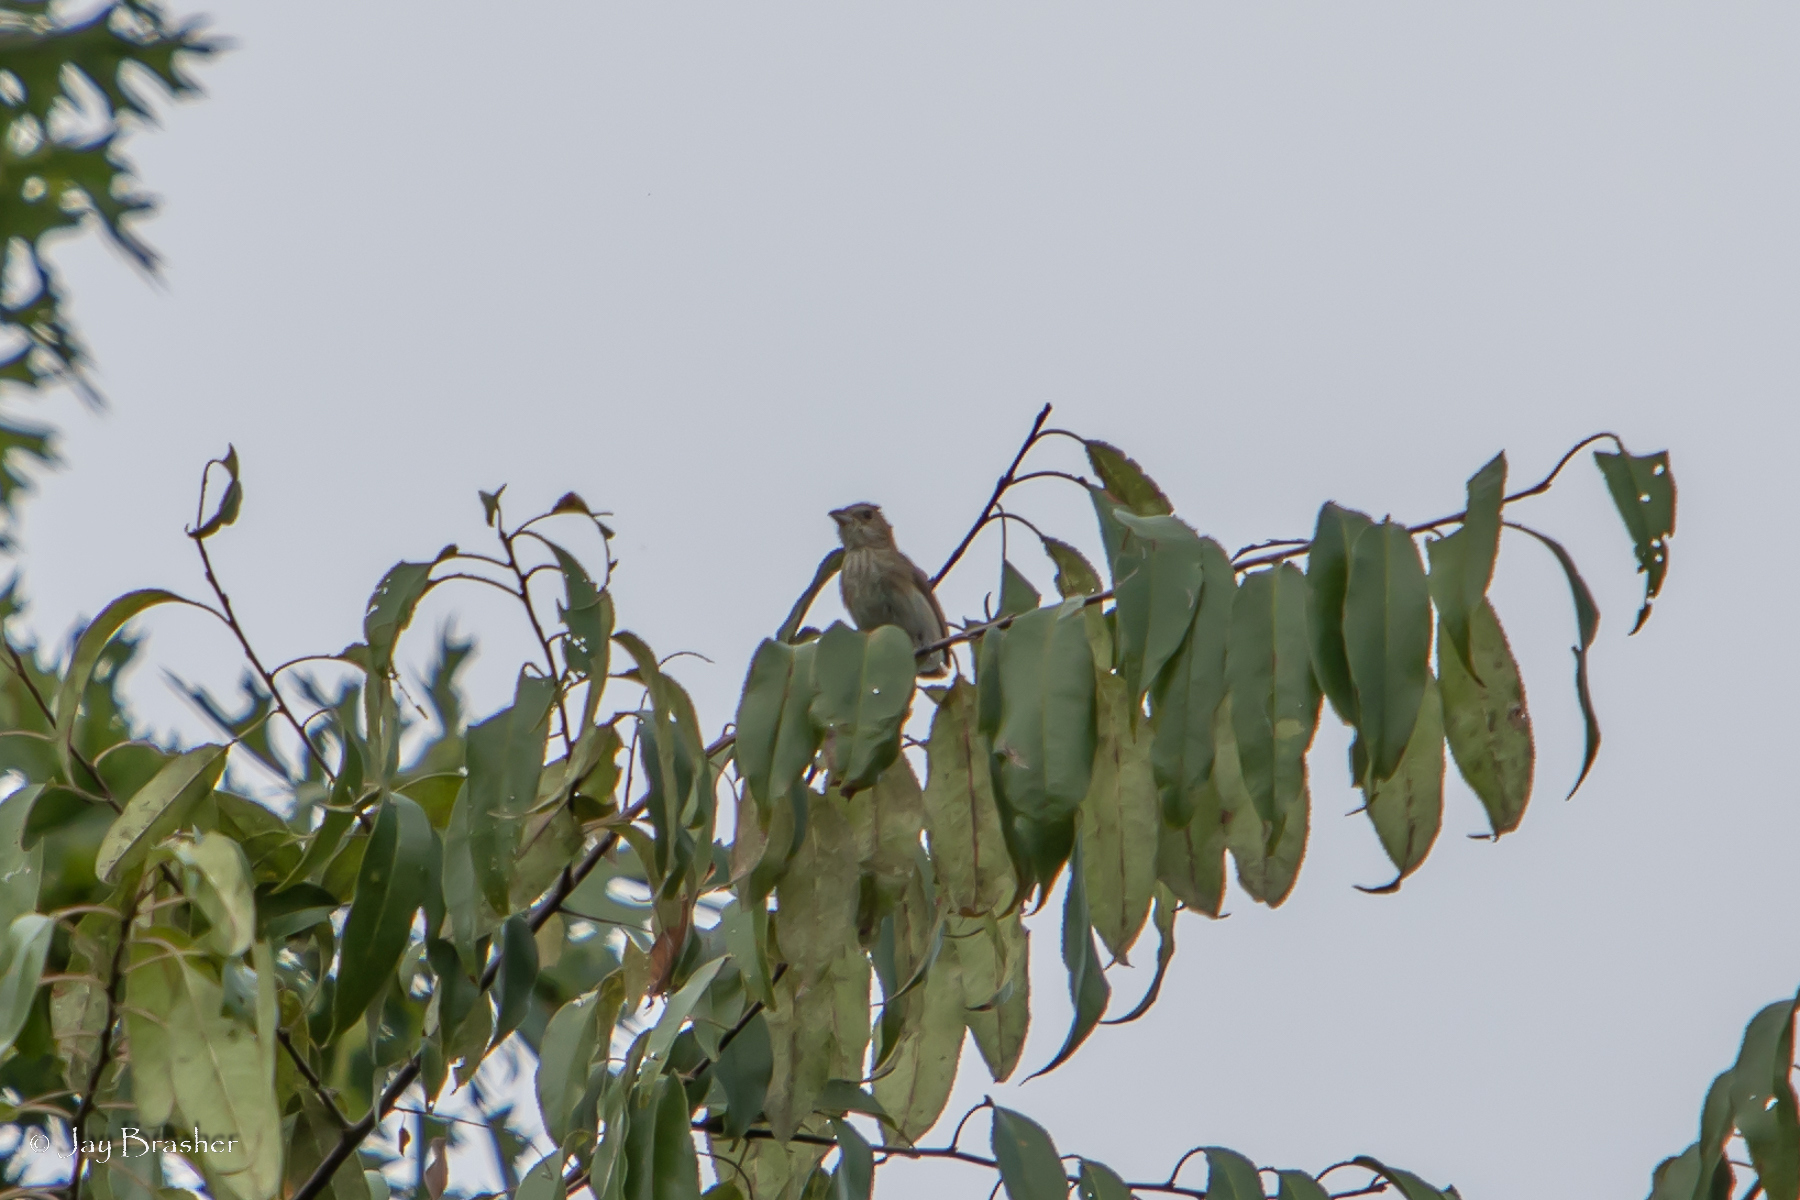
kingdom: Animalia
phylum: Chordata
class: Aves
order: Passeriformes
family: Cardinalidae
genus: Passerina
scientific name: Passerina cyanea
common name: Indigo bunting
